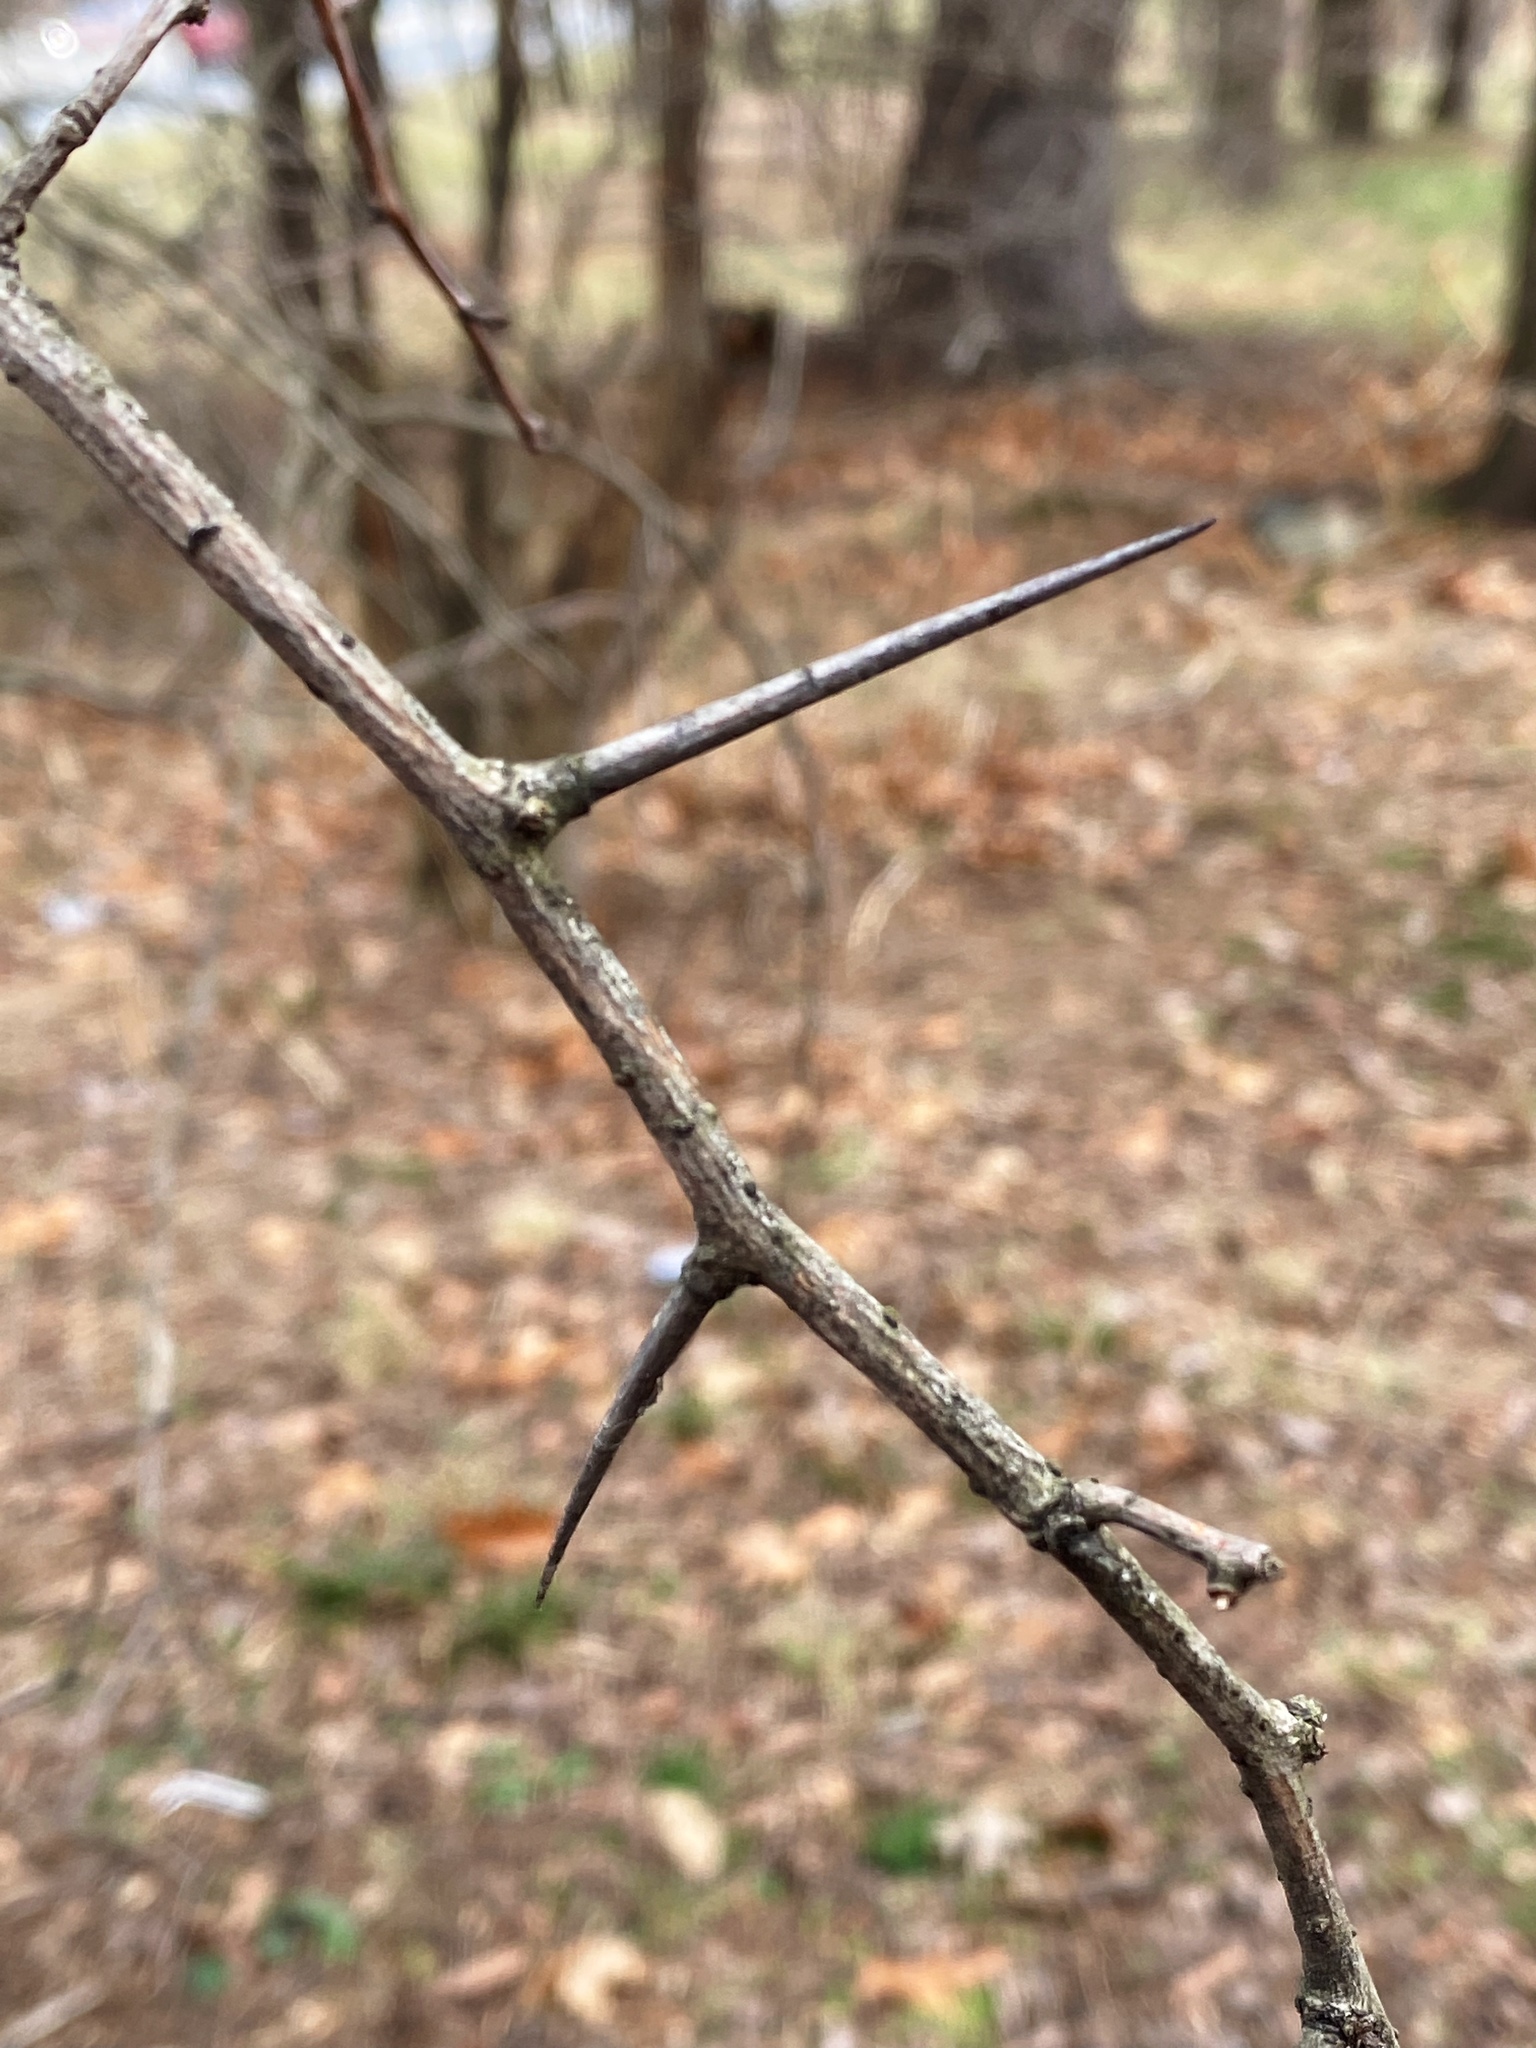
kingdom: Plantae
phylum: Tracheophyta
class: Magnoliopsida
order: Rosales
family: Rosaceae
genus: Crataegus
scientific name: Crataegus
